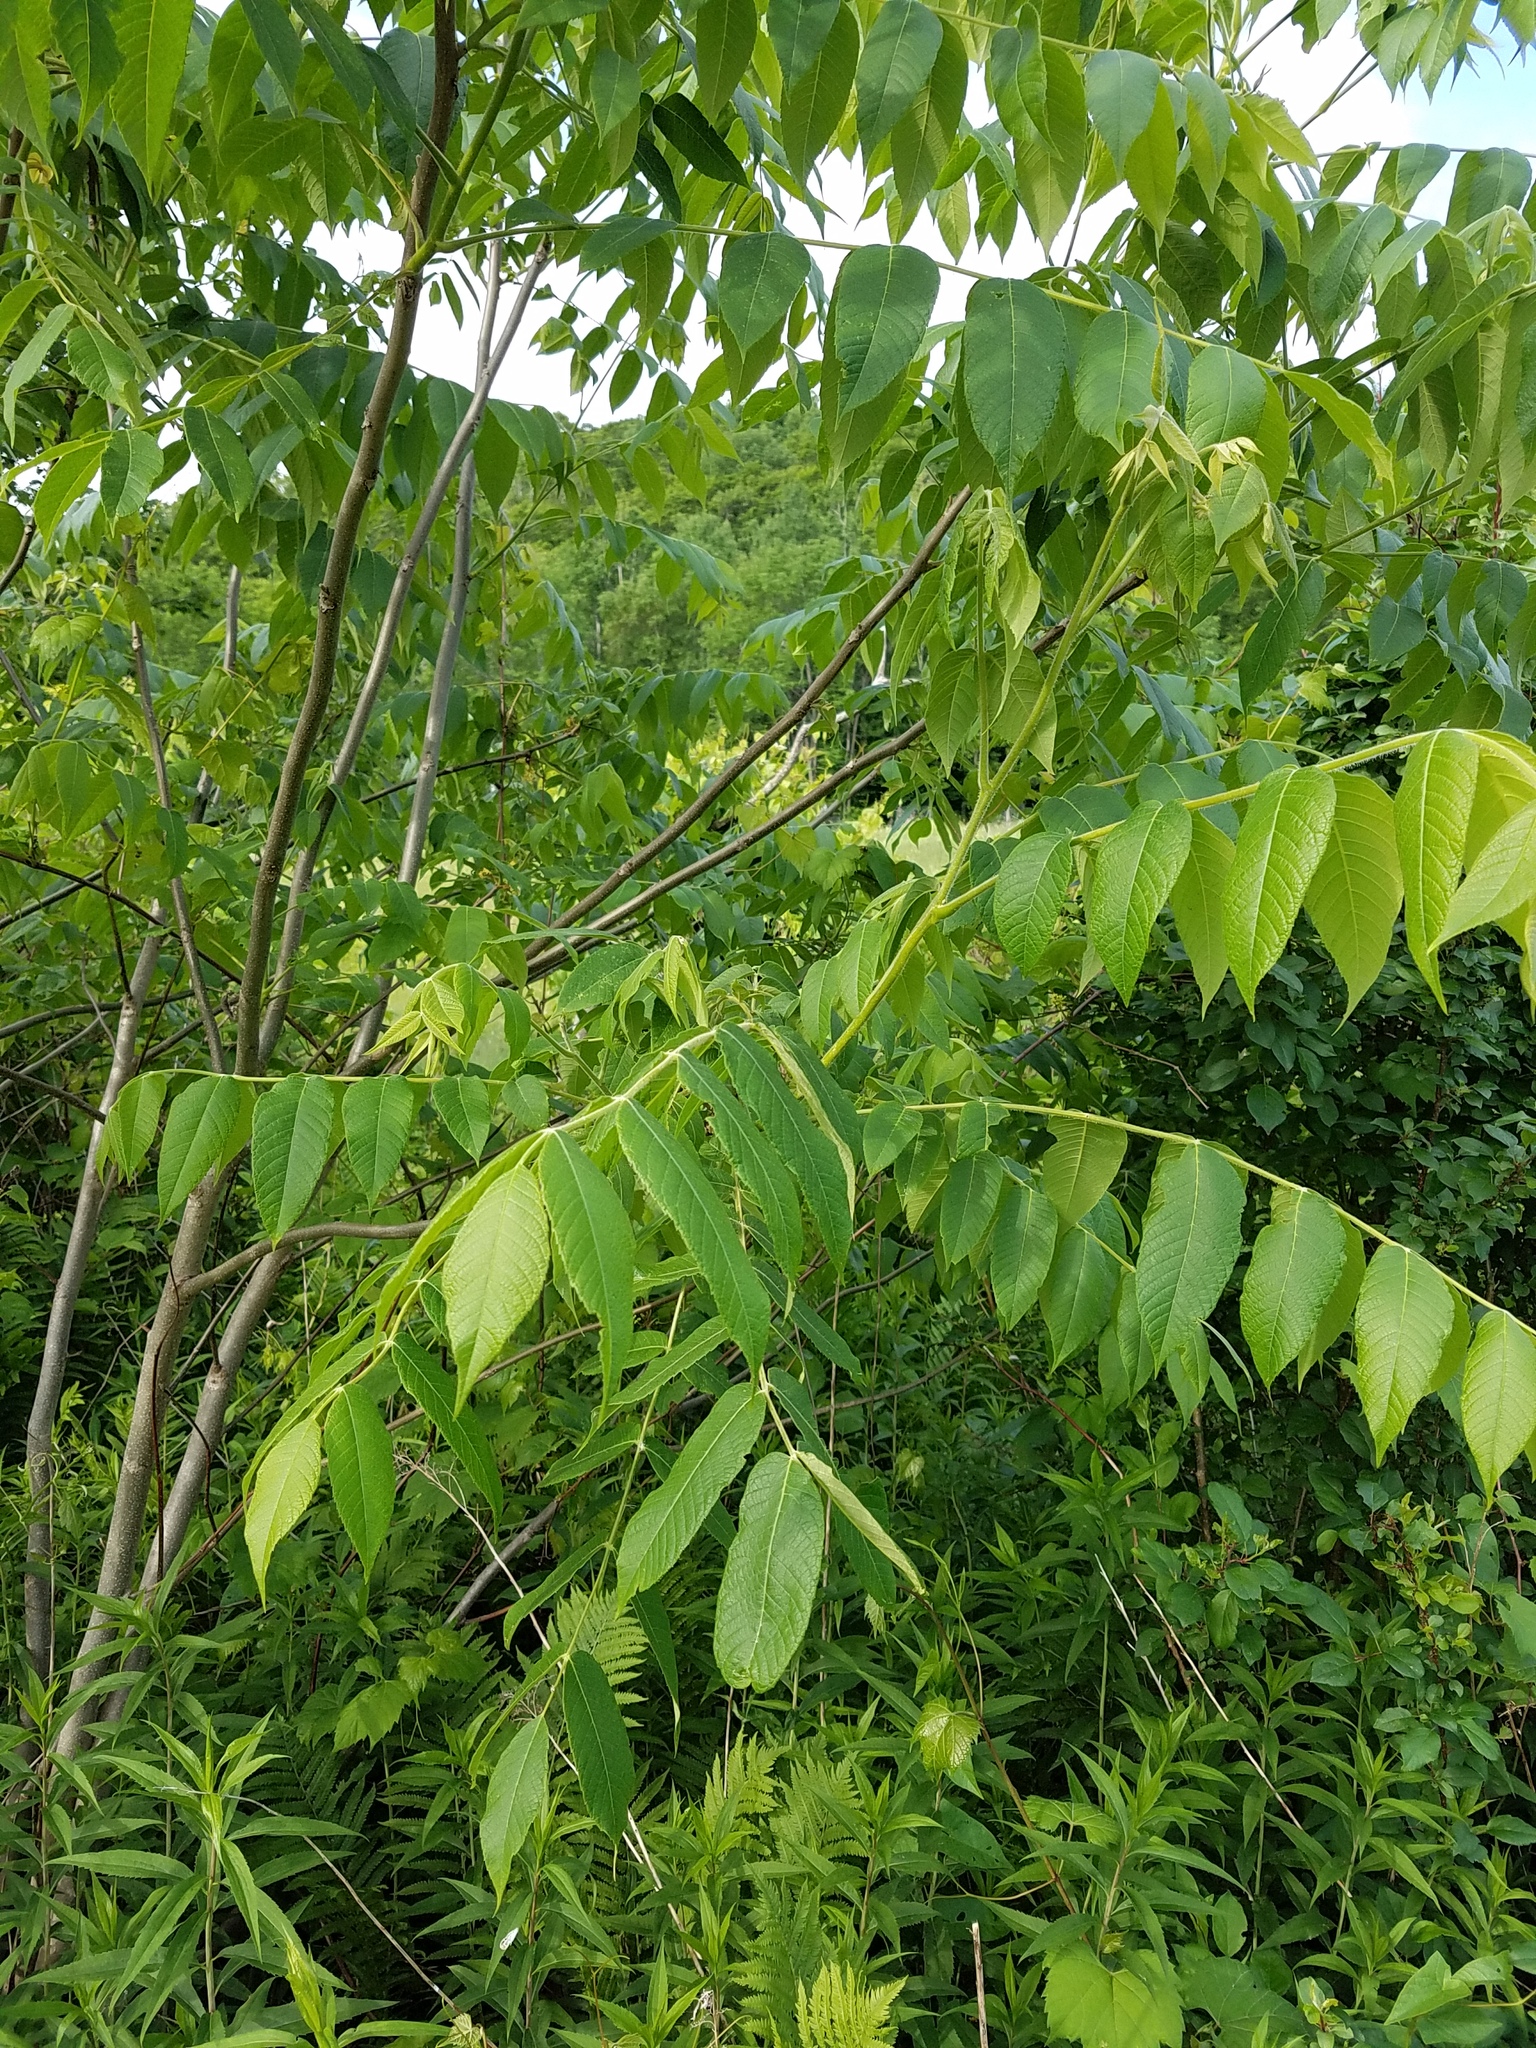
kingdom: Plantae
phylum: Tracheophyta
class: Magnoliopsida
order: Fagales
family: Juglandaceae
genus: Juglans
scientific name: Juglans cinerea
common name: Butternut
